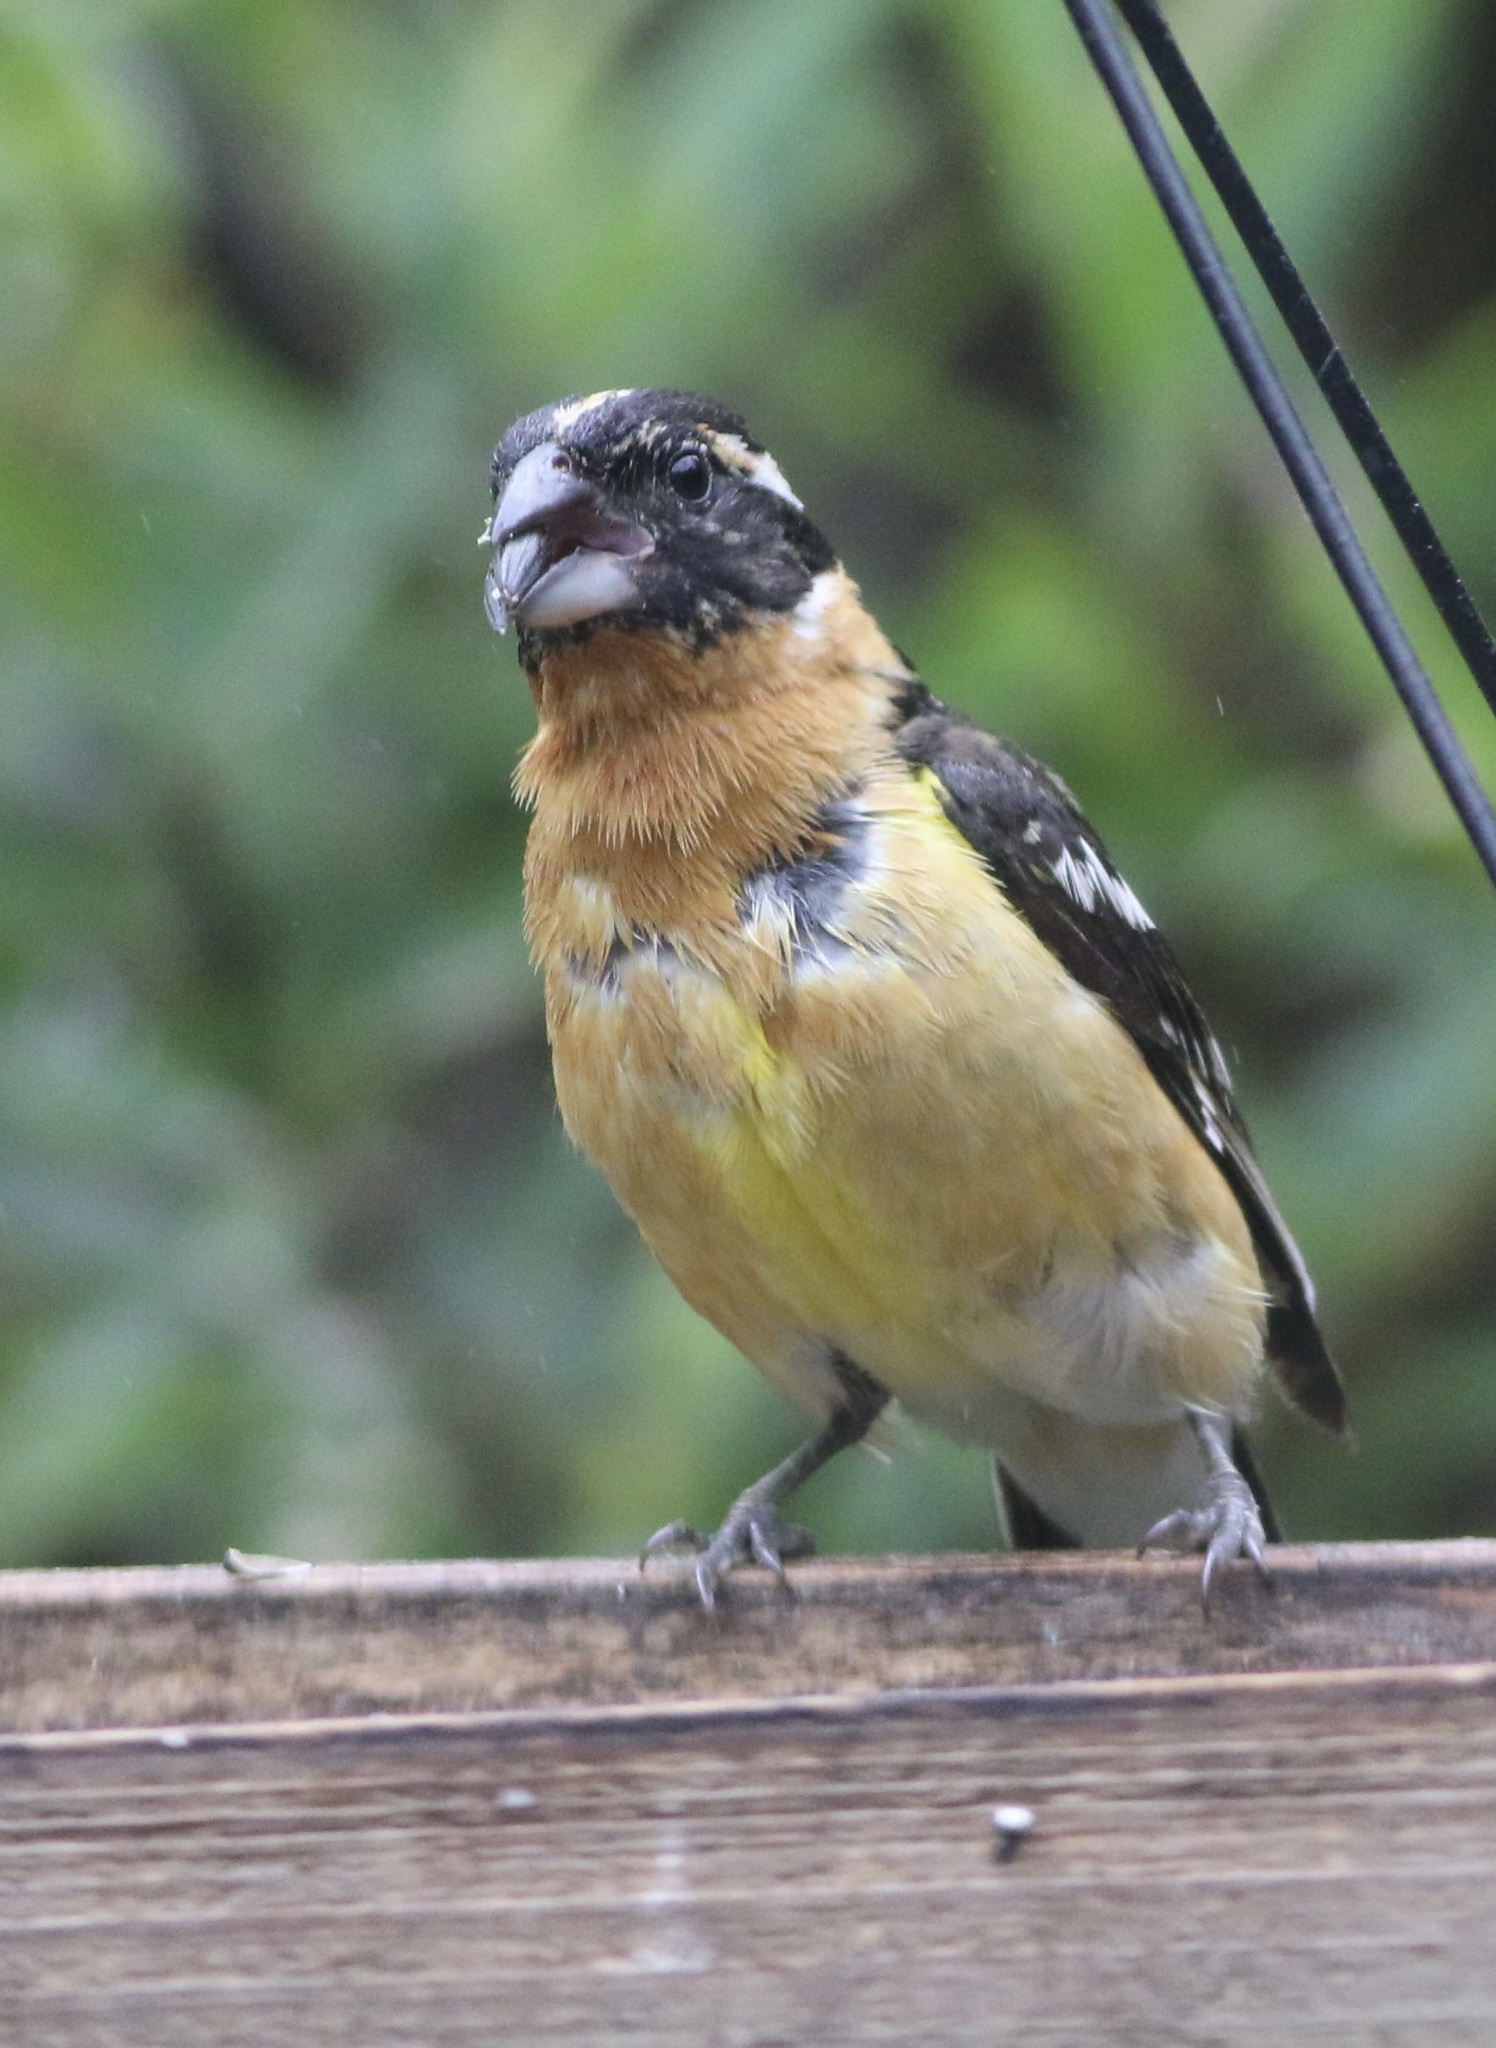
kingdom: Animalia
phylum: Chordata
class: Aves
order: Passeriformes
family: Cardinalidae
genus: Pheucticus
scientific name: Pheucticus melanocephalus
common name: Black-headed grosbeak
